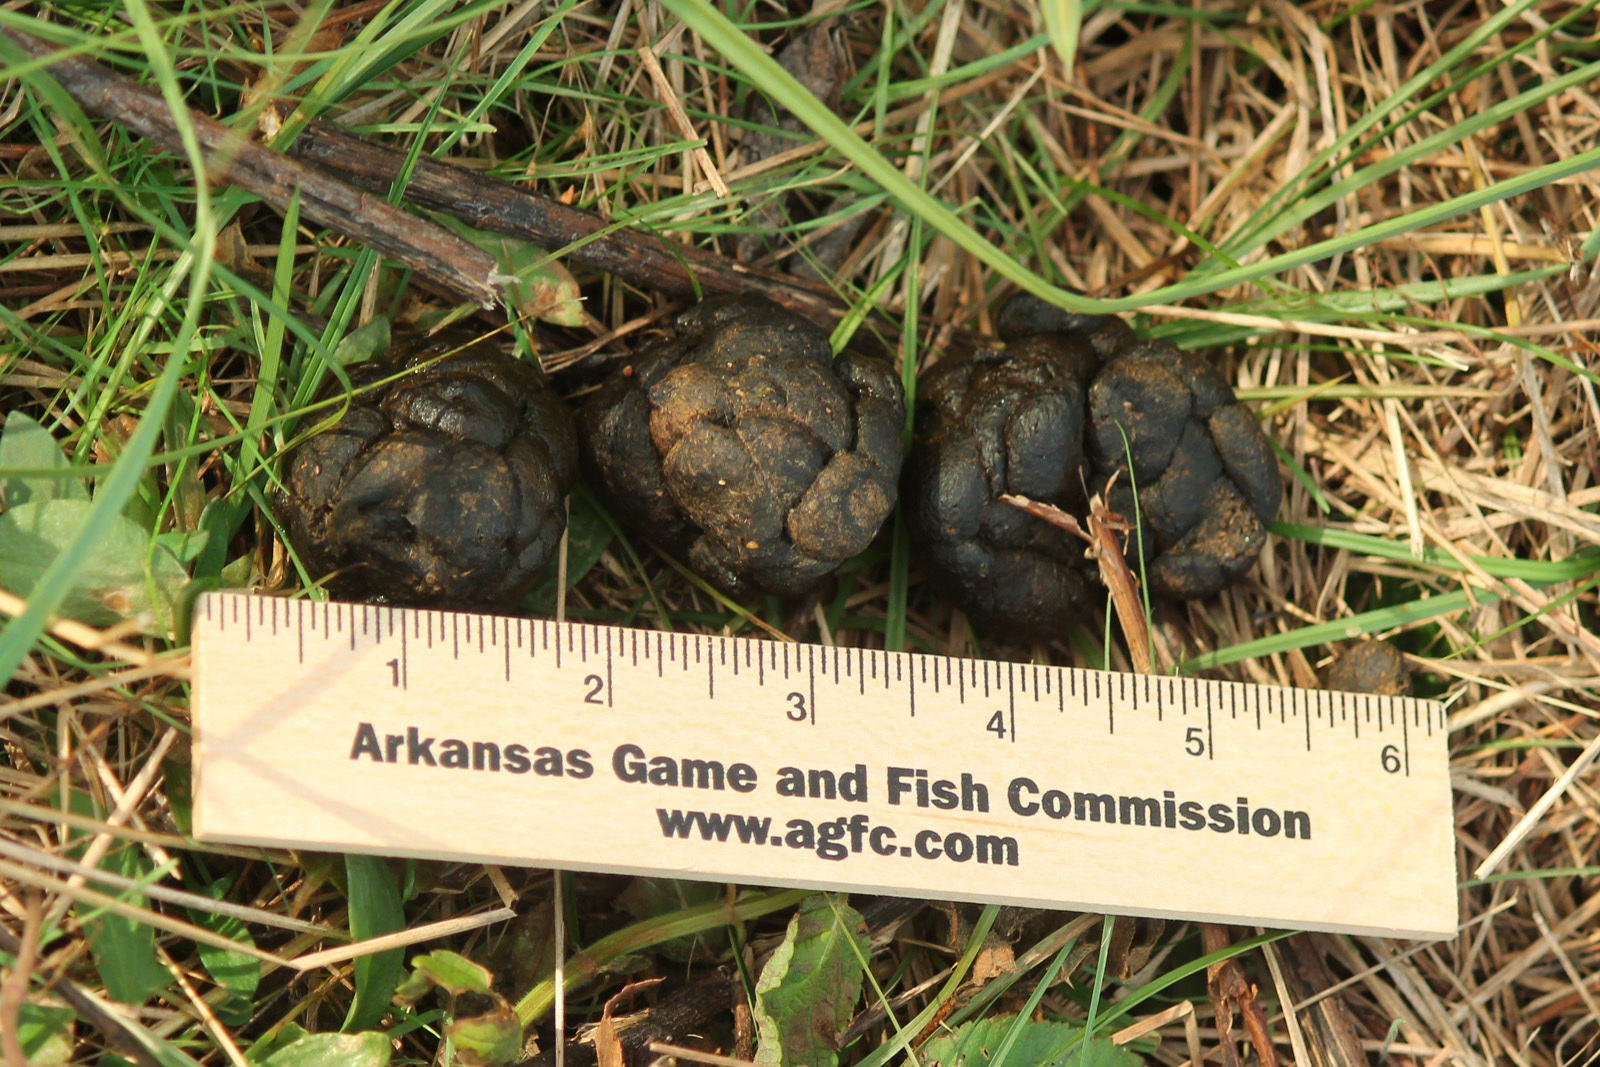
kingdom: Animalia
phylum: Chordata
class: Mammalia
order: Artiodactyla
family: Cervidae
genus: Odocoileus
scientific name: Odocoileus virginianus
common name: White-tailed deer
